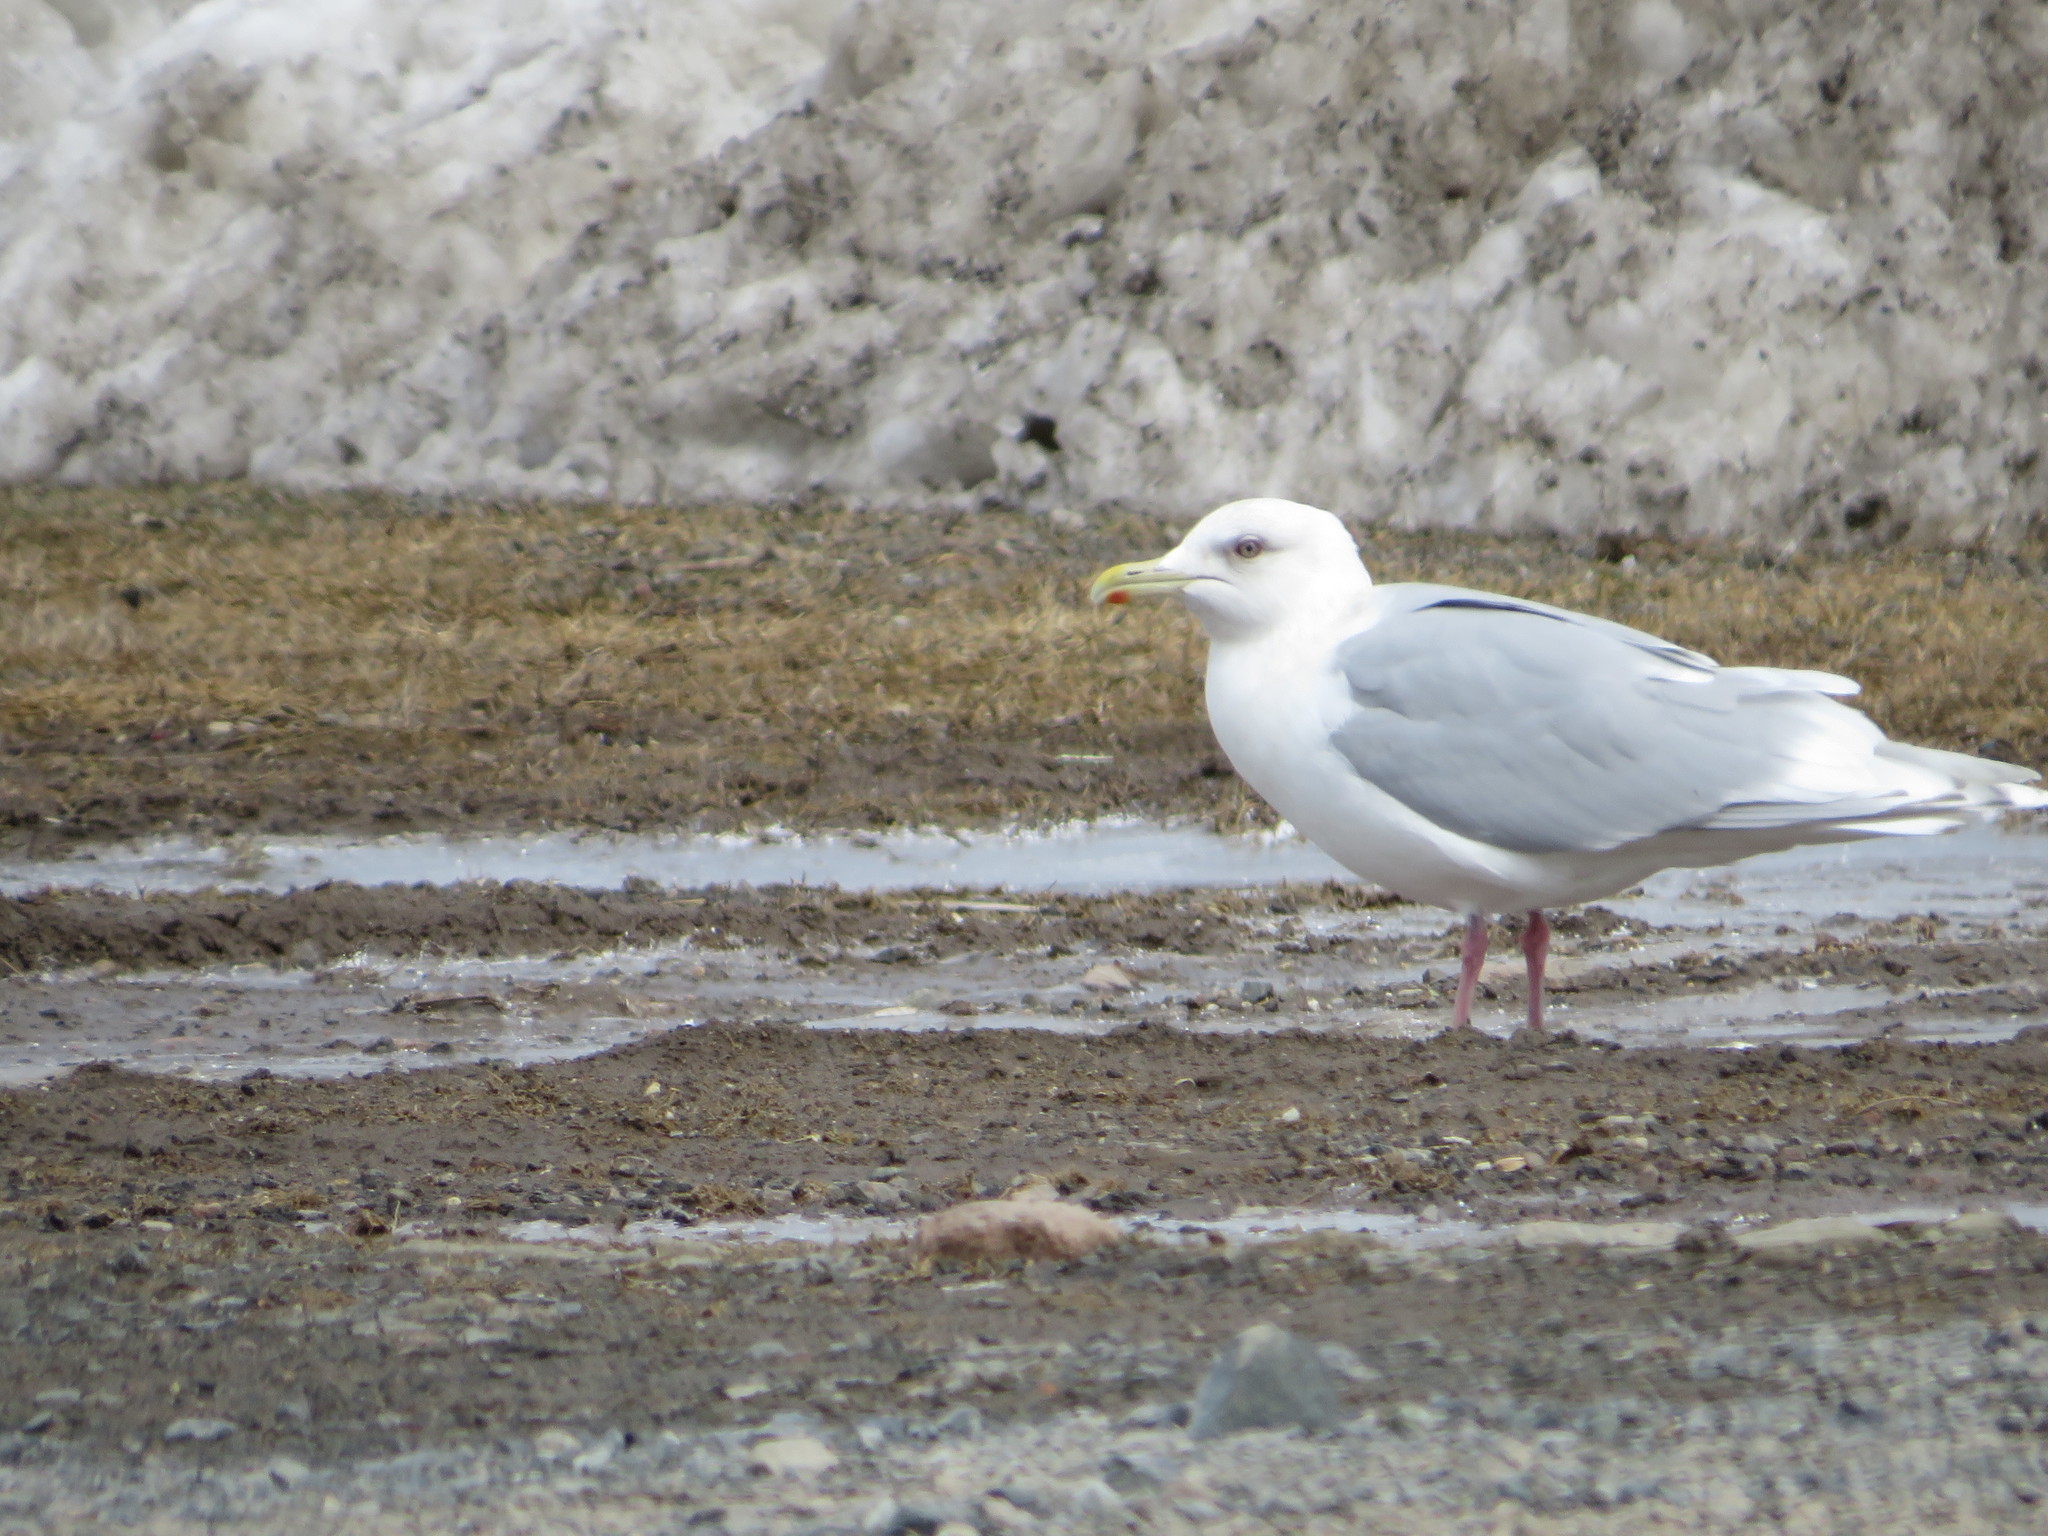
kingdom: Animalia
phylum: Chordata
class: Aves
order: Charadriiformes
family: Laridae
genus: Larus
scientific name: Larus glaucoides
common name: Iceland gull
